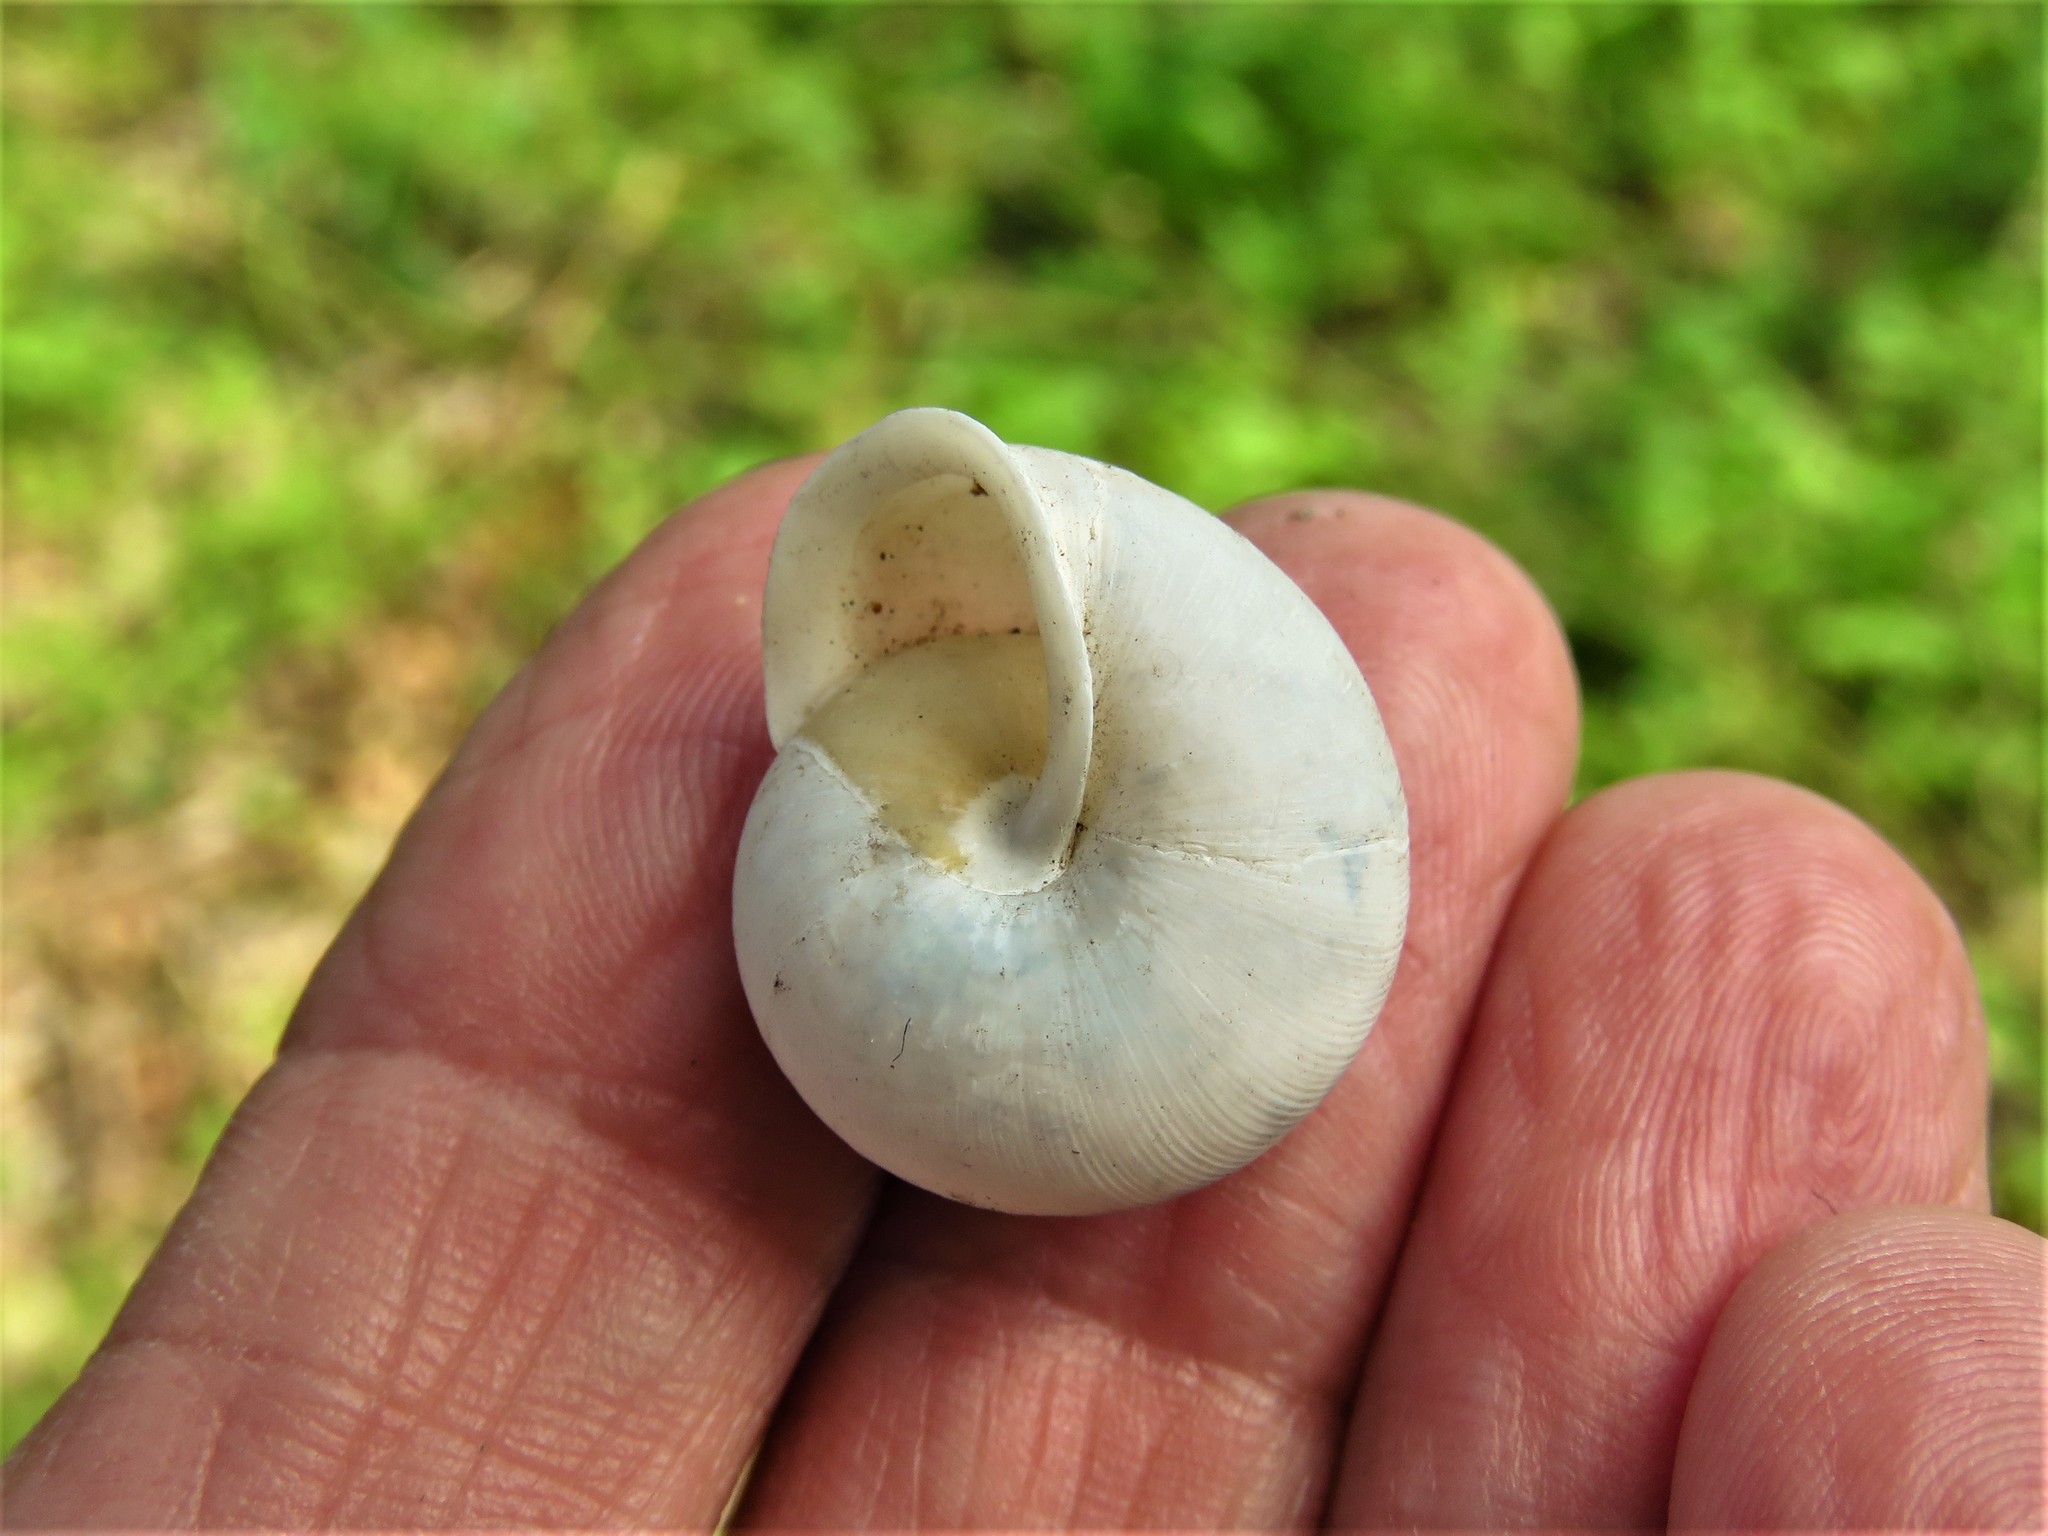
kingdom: Animalia
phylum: Mollusca
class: Gastropoda
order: Stylommatophora
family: Polygyridae
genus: Patera
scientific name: Patera roemeri
